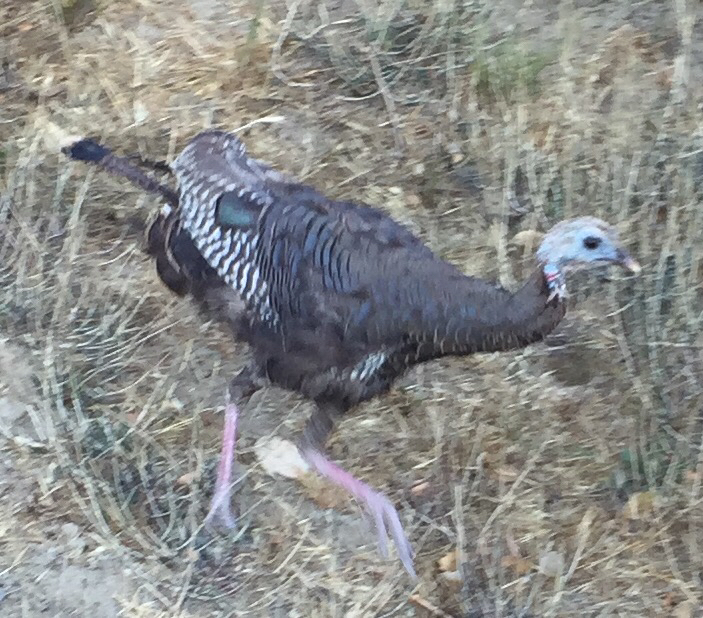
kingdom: Animalia
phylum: Chordata
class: Aves
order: Galliformes
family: Phasianidae
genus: Meleagris
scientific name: Meleagris gallopavo
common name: Wild turkey
